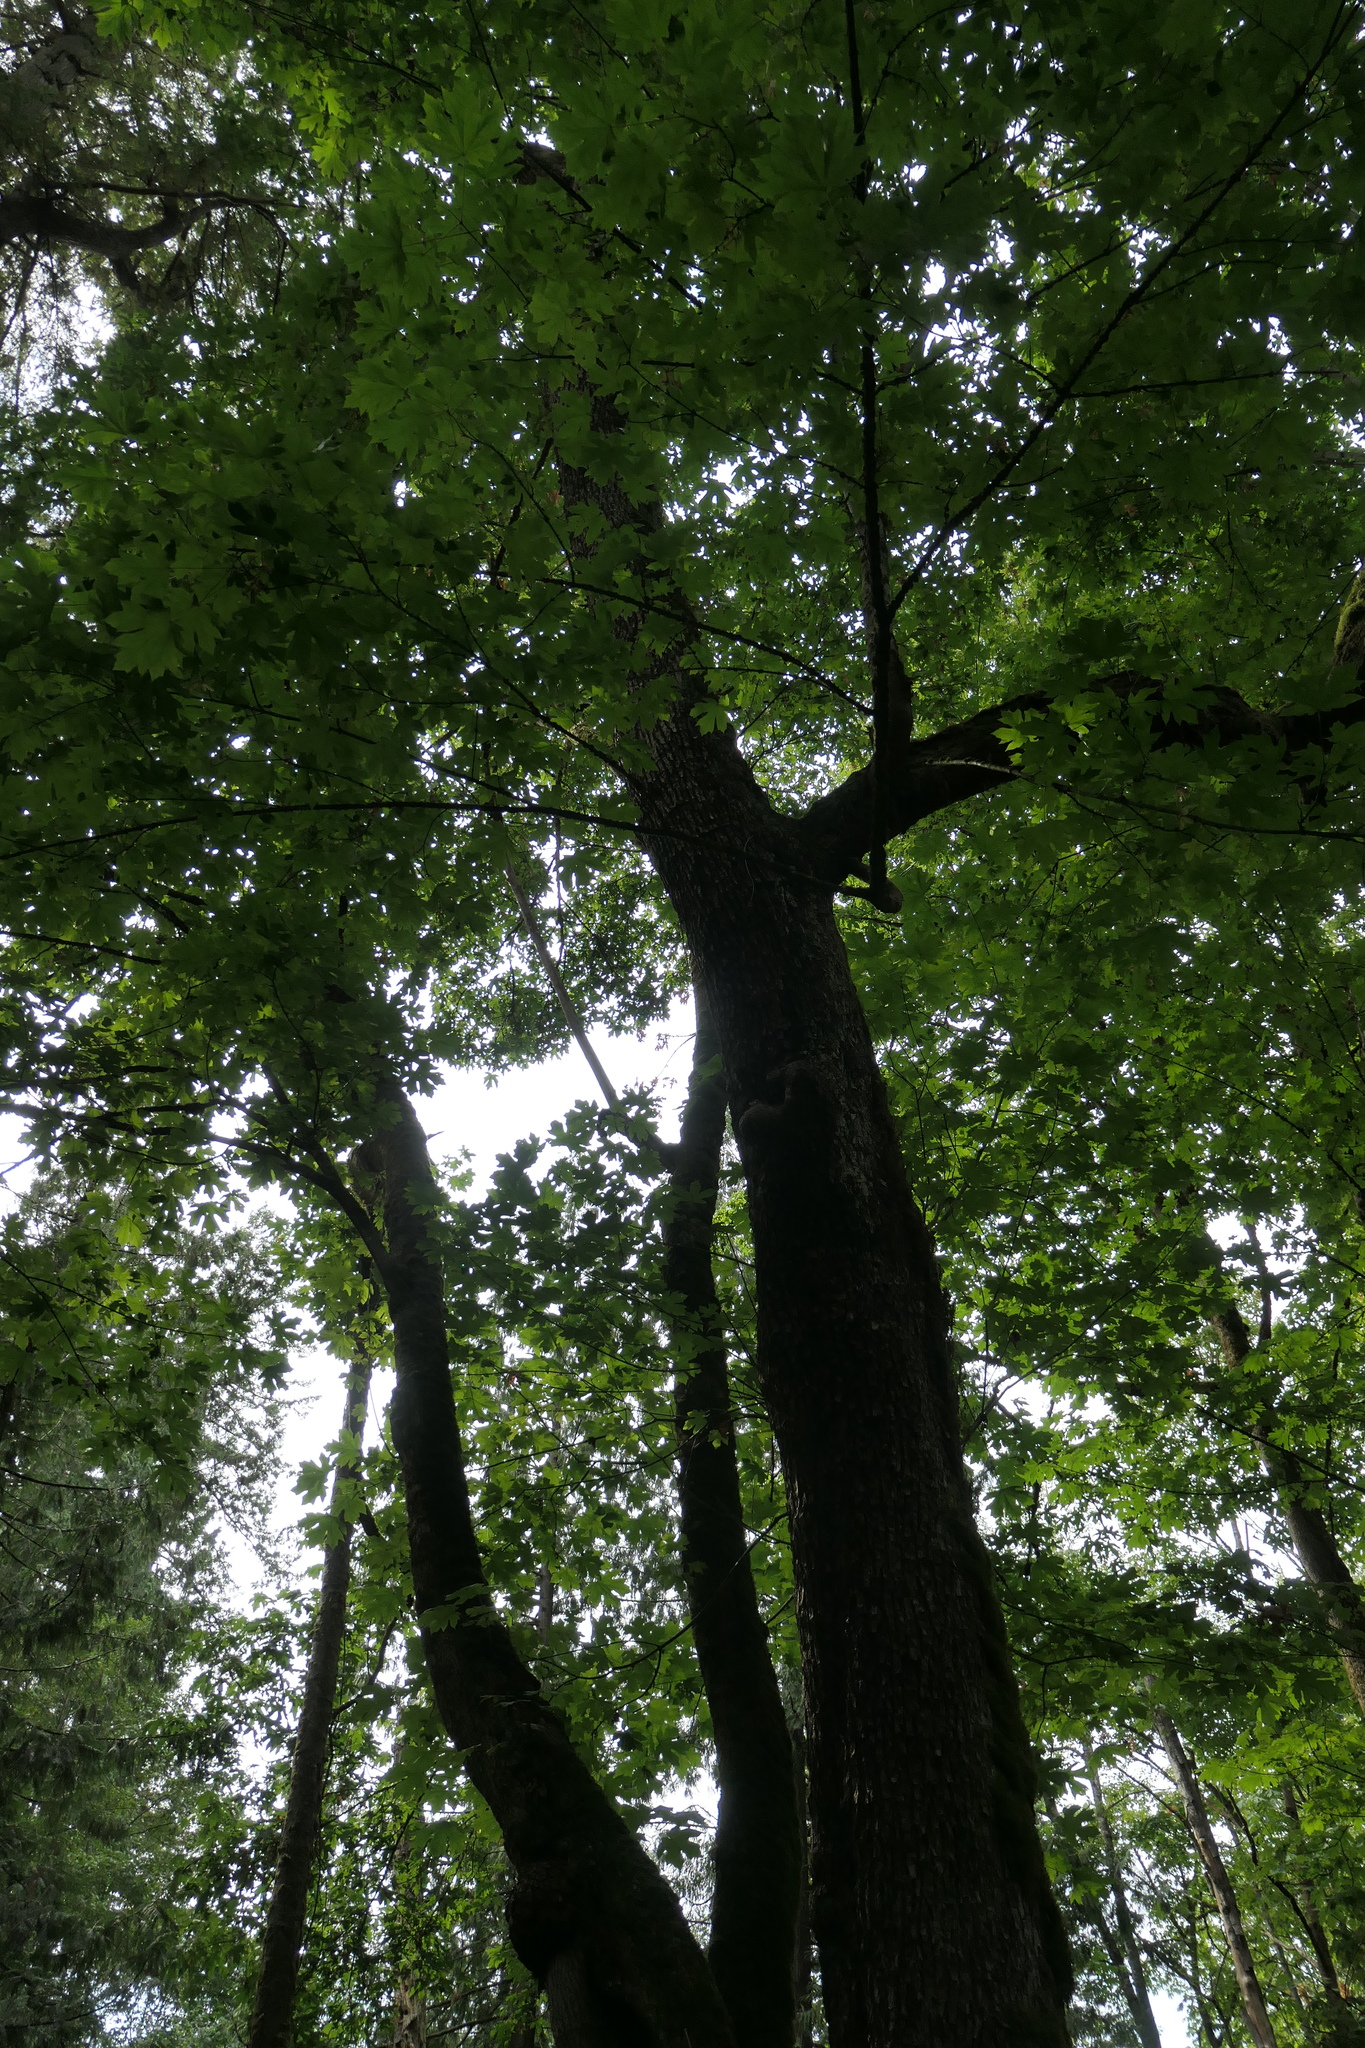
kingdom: Plantae
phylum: Tracheophyta
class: Magnoliopsida
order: Sapindales
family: Sapindaceae
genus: Acer
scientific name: Acer macrophyllum
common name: Oregon maple
